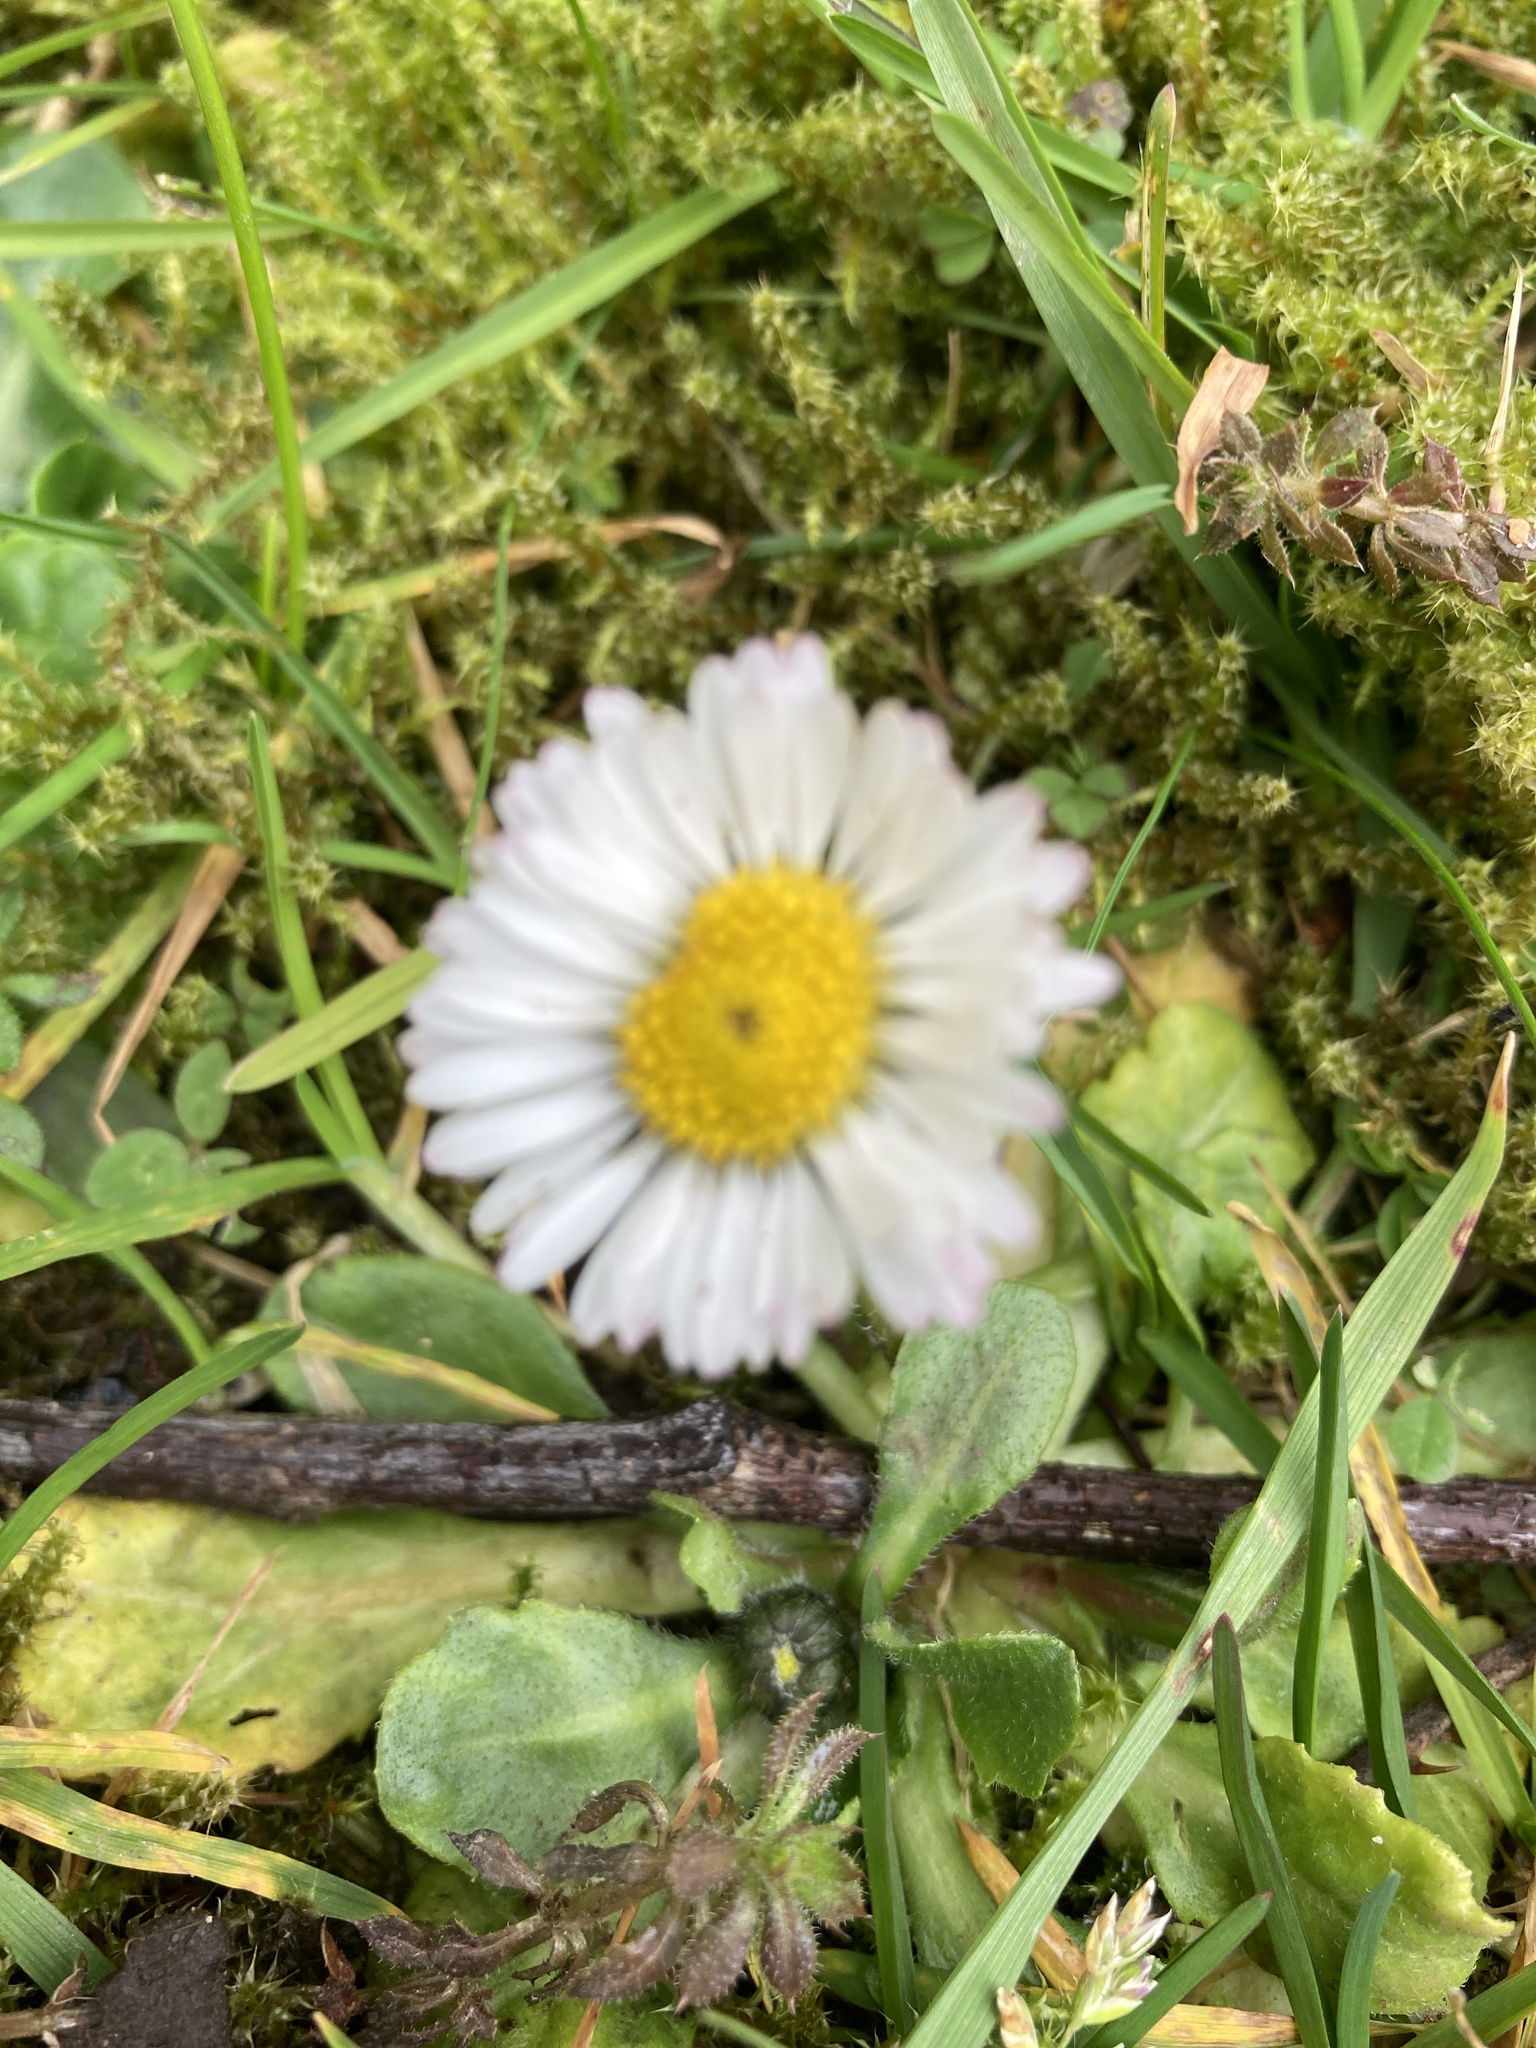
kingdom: Plantae
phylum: Tracheophyta
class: Magnoliopsida
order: Asterales
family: Asteraceae
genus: Bellis
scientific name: Bellis perennis
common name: Lawndaisy
